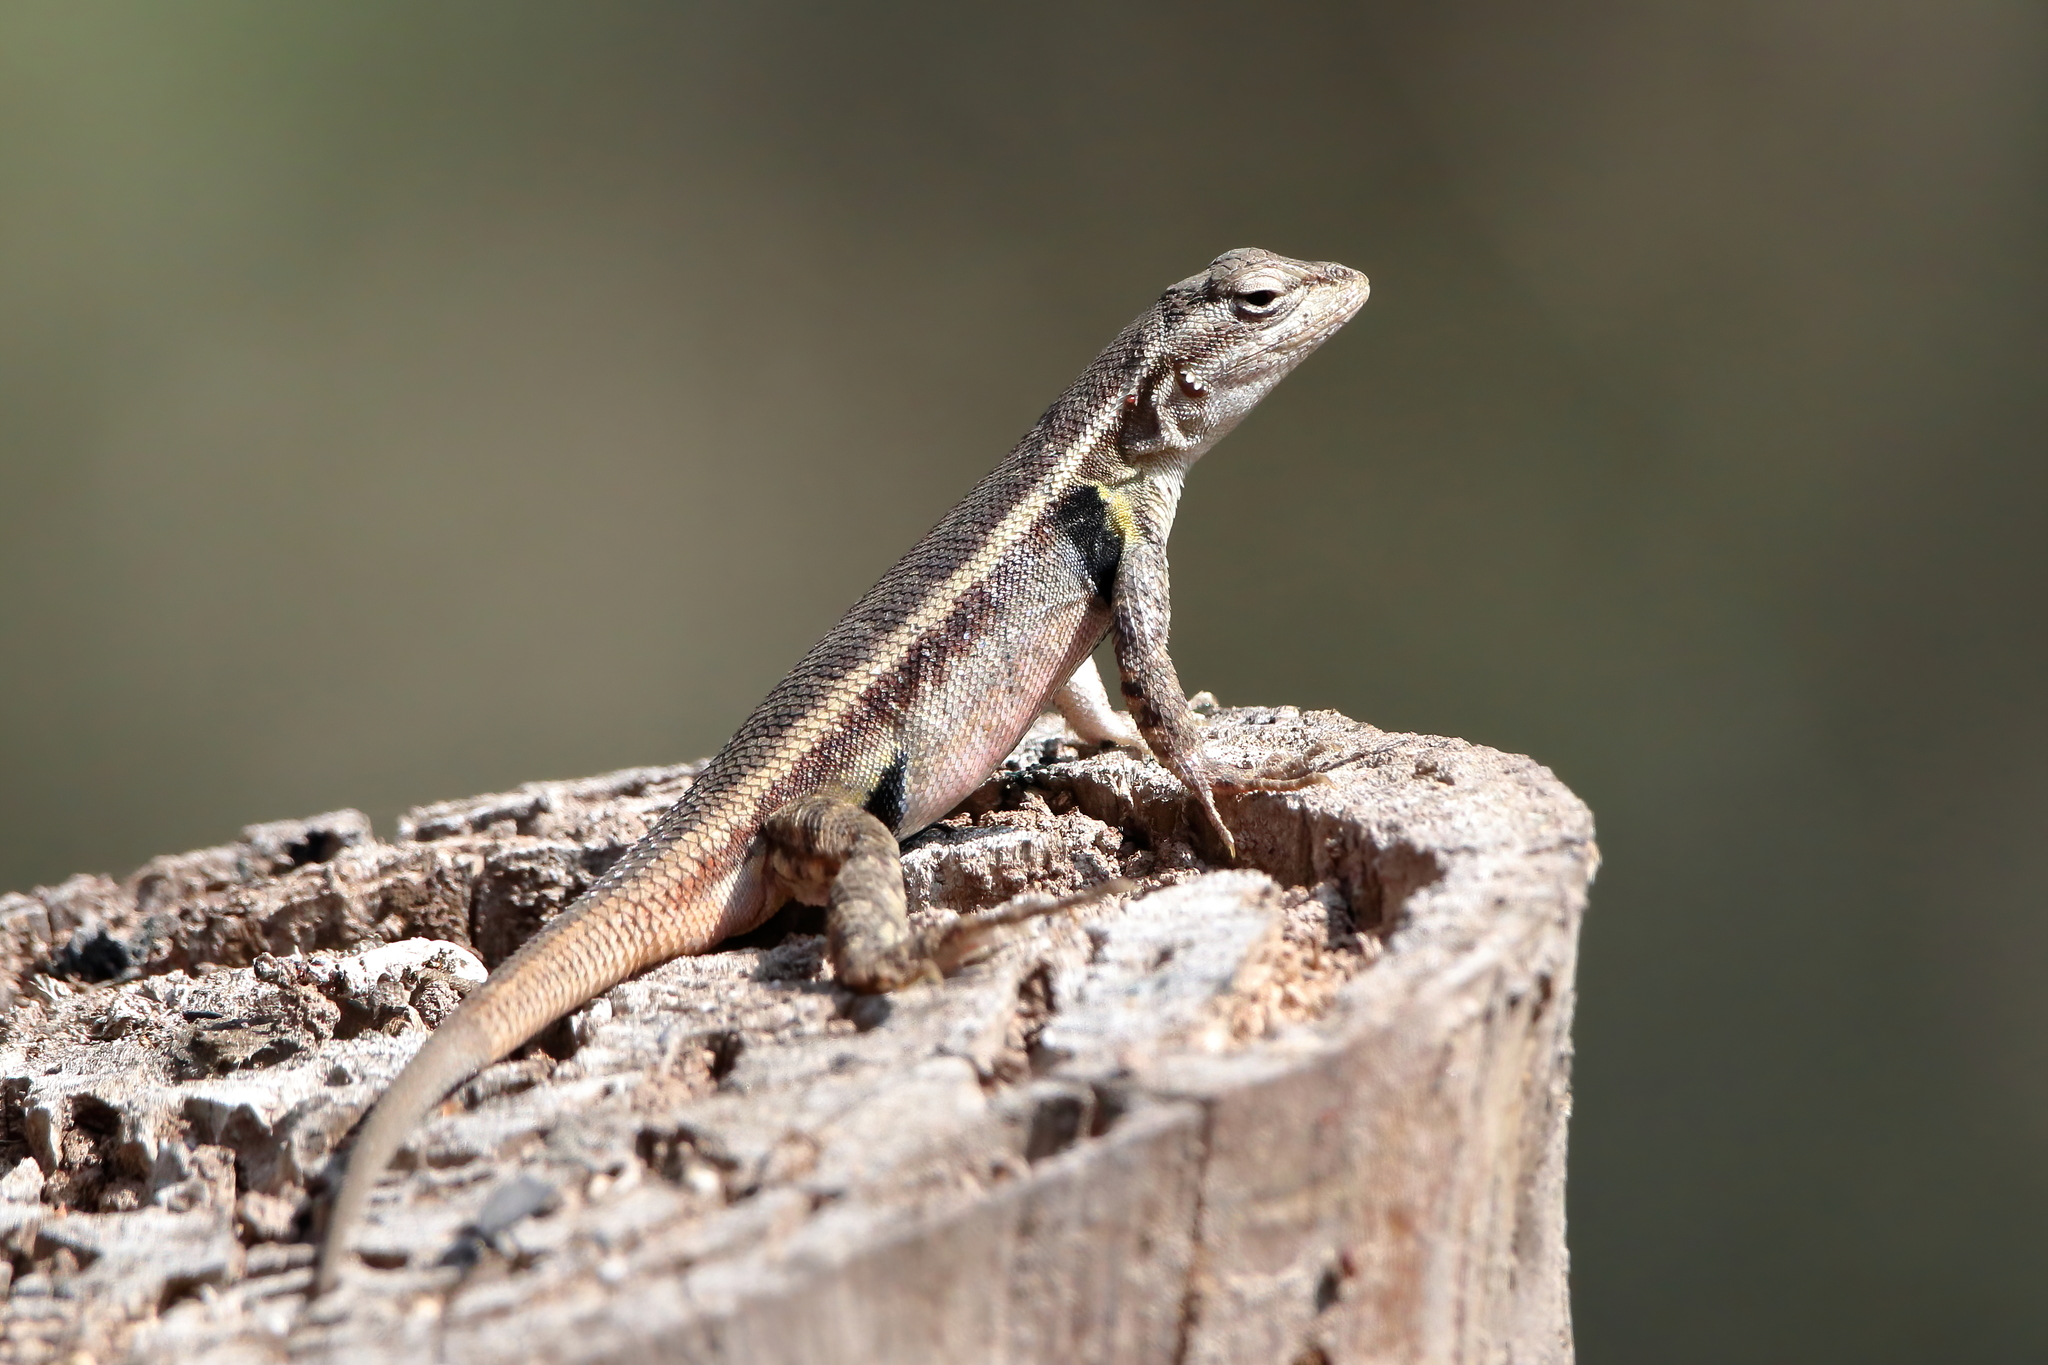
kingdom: Animalia
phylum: Chordata
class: Squamata
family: Phrynosomatidae
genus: Sceloporus
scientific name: Sceloporus variabilis
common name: Rosebelly lizard
